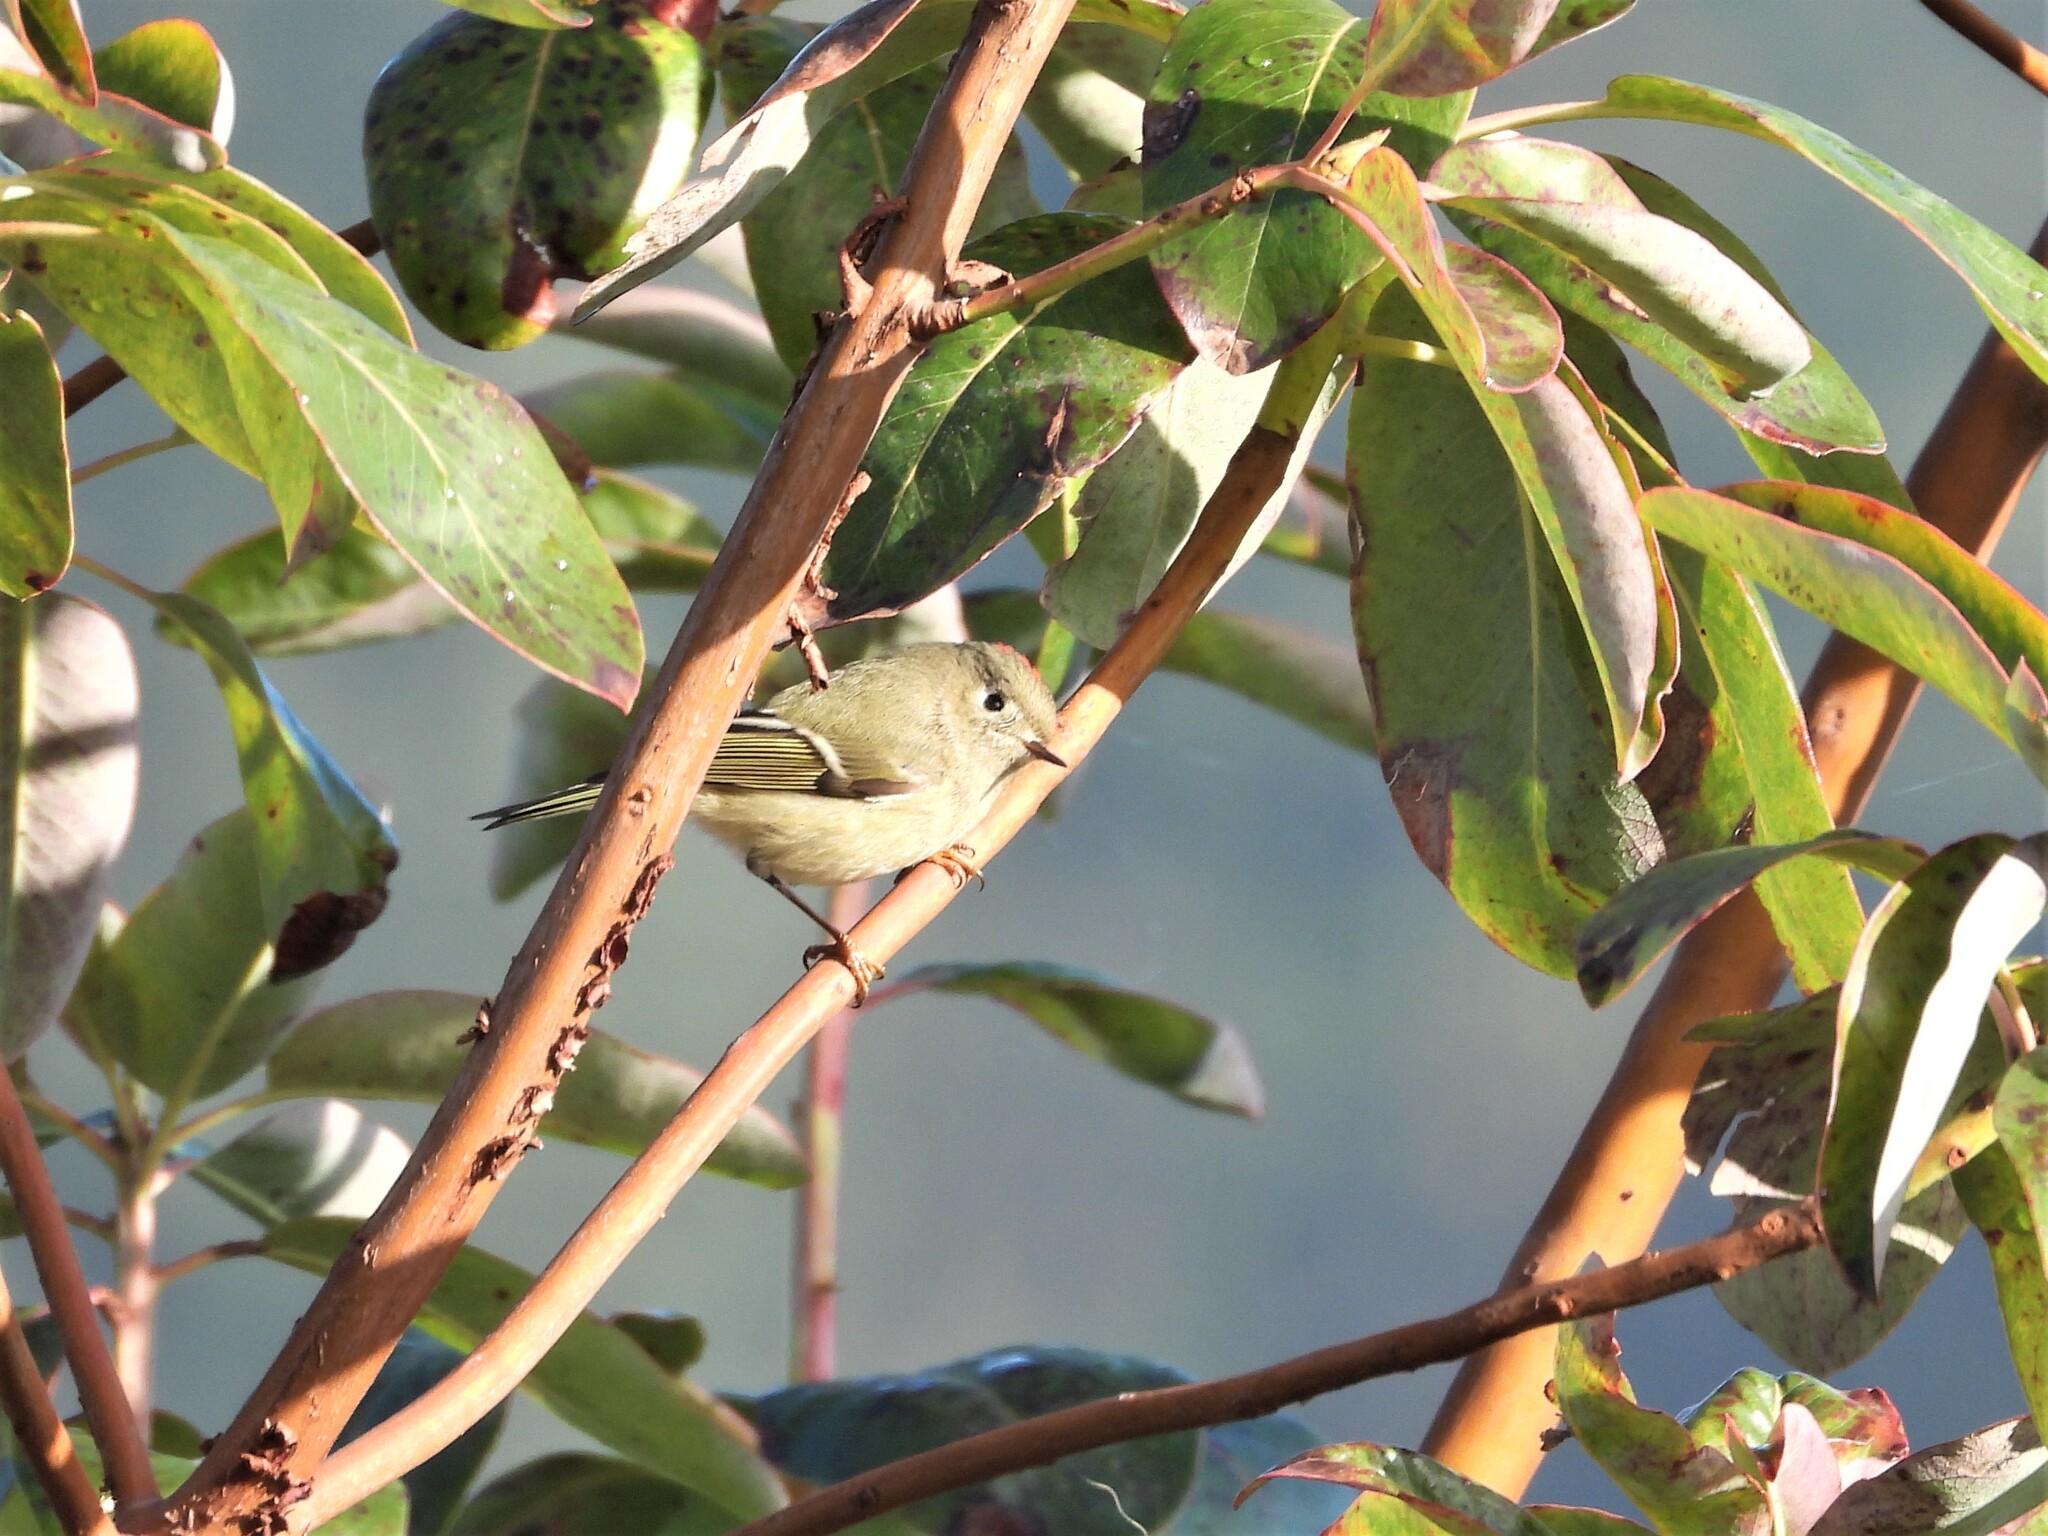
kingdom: Animalia
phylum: Chordata
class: Aves
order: Passeriformes
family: Regulidae
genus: Regulus
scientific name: Regulus calendula
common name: Ruby-crowned kinglet
